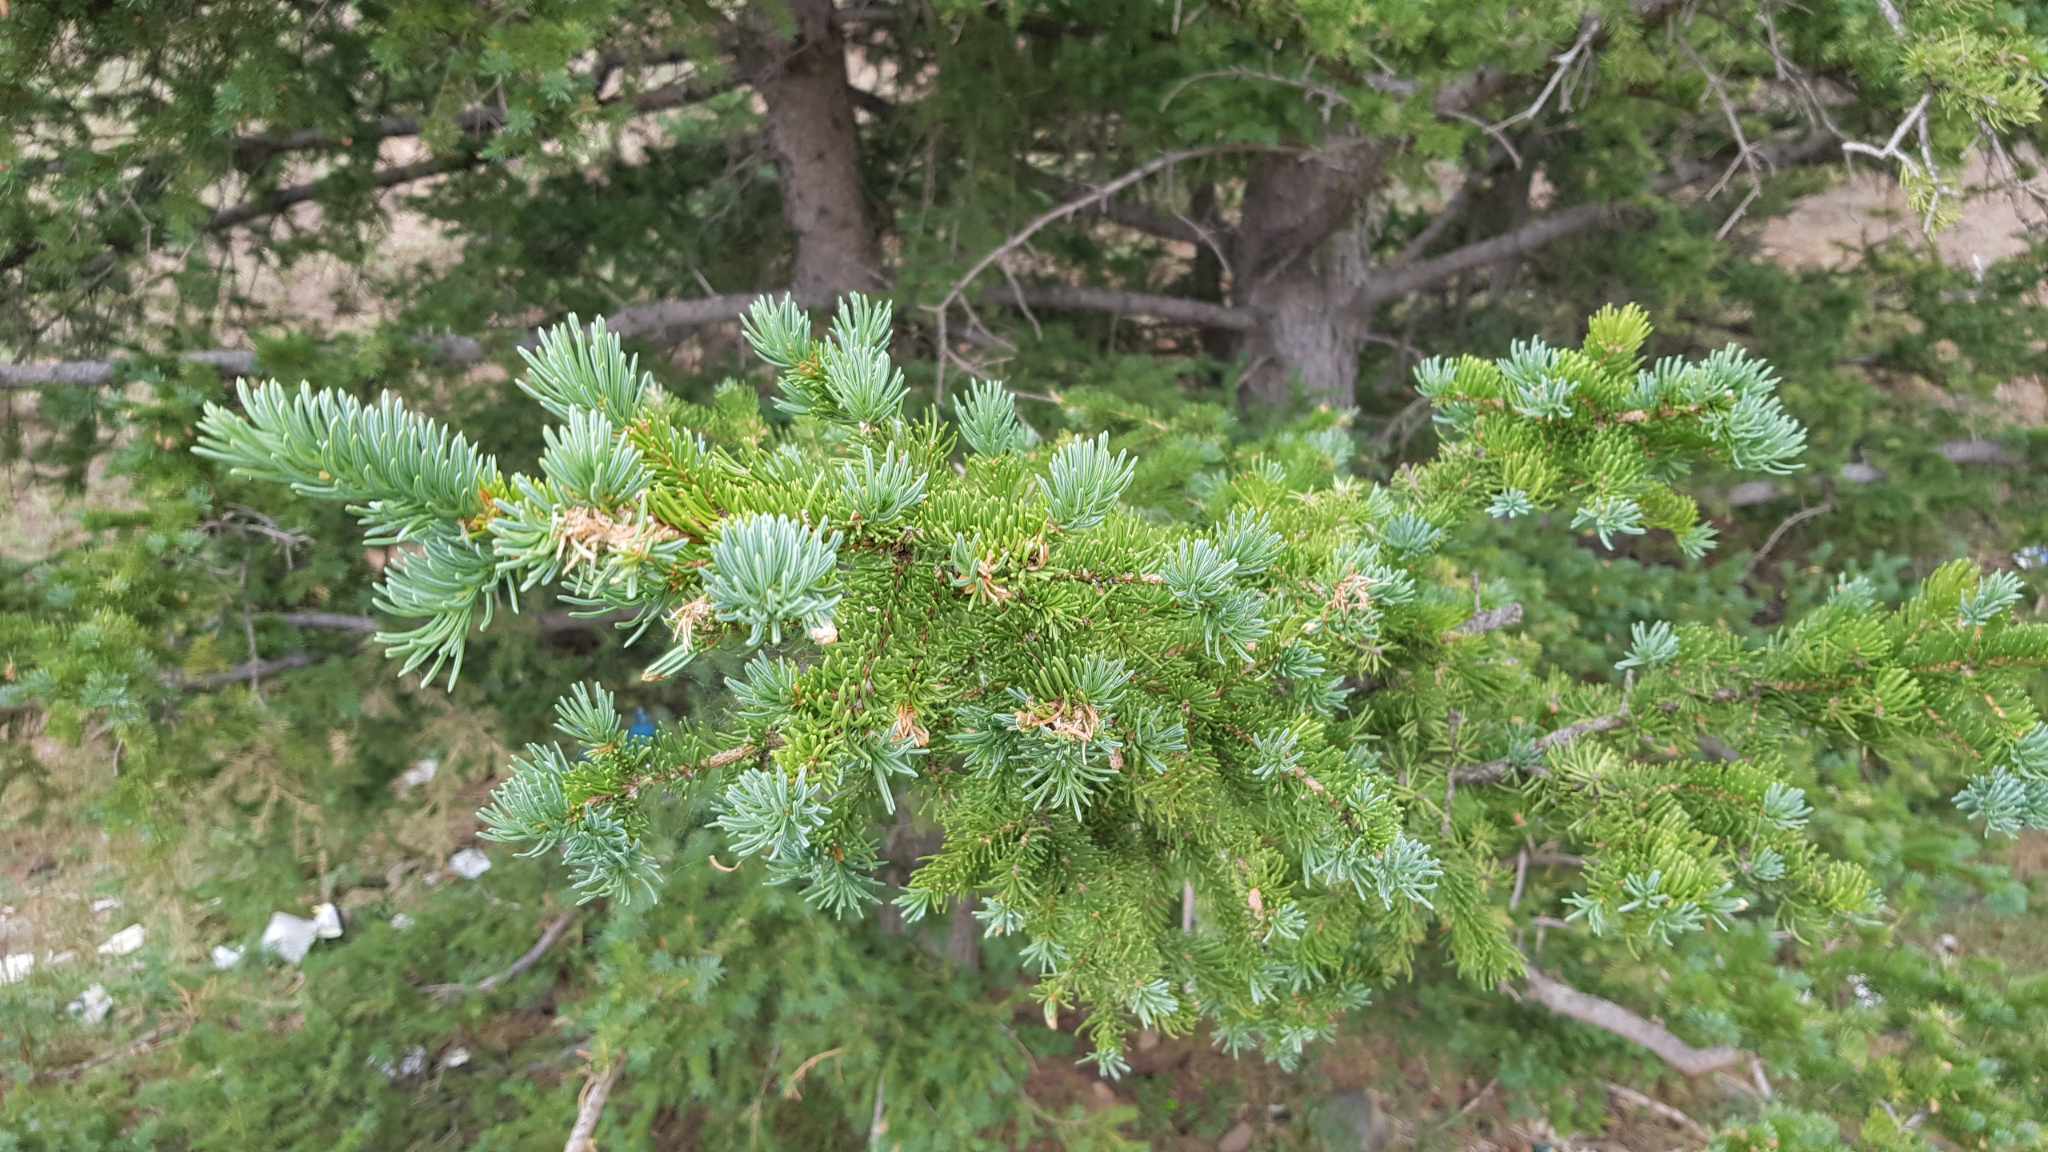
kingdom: Plantae
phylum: Tracheophyta
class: Pinopsida
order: Pinales
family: Pinaceae
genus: Picea
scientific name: Picea obovata
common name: Siberian spruce
